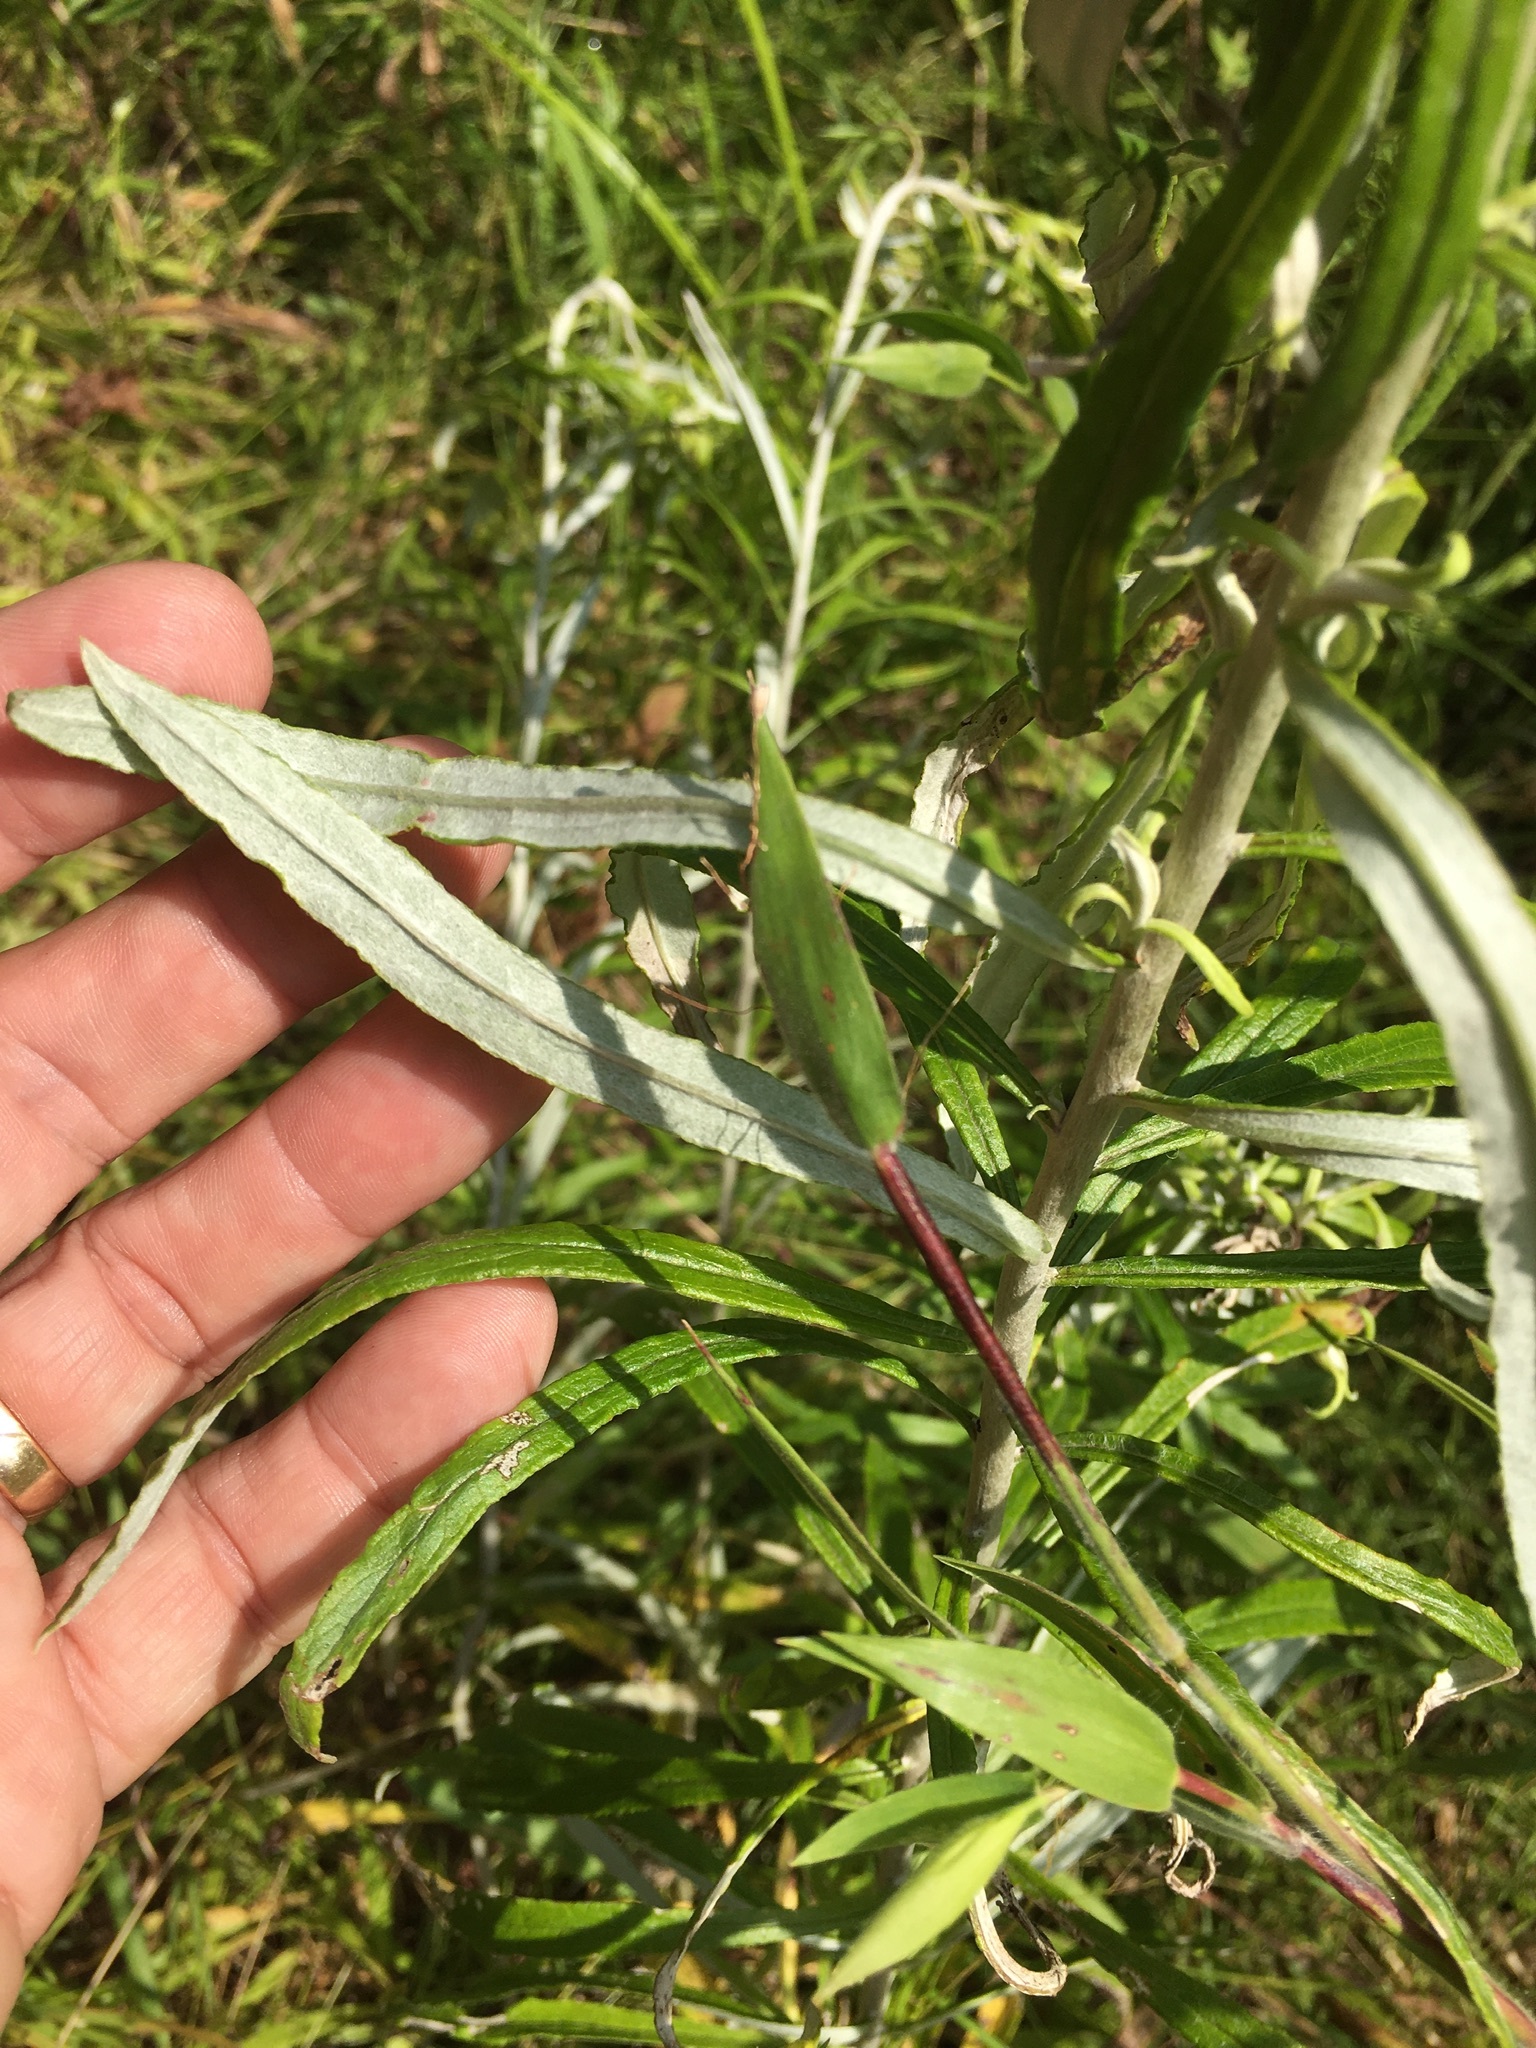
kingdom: Plantae
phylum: Tracheophyta
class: Magnoliopsida
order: Asterales
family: Asteraceae
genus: Pseudognaphalium
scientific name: Pseudognaphalium obtusifolium
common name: Eastern rabbit-tobacco
